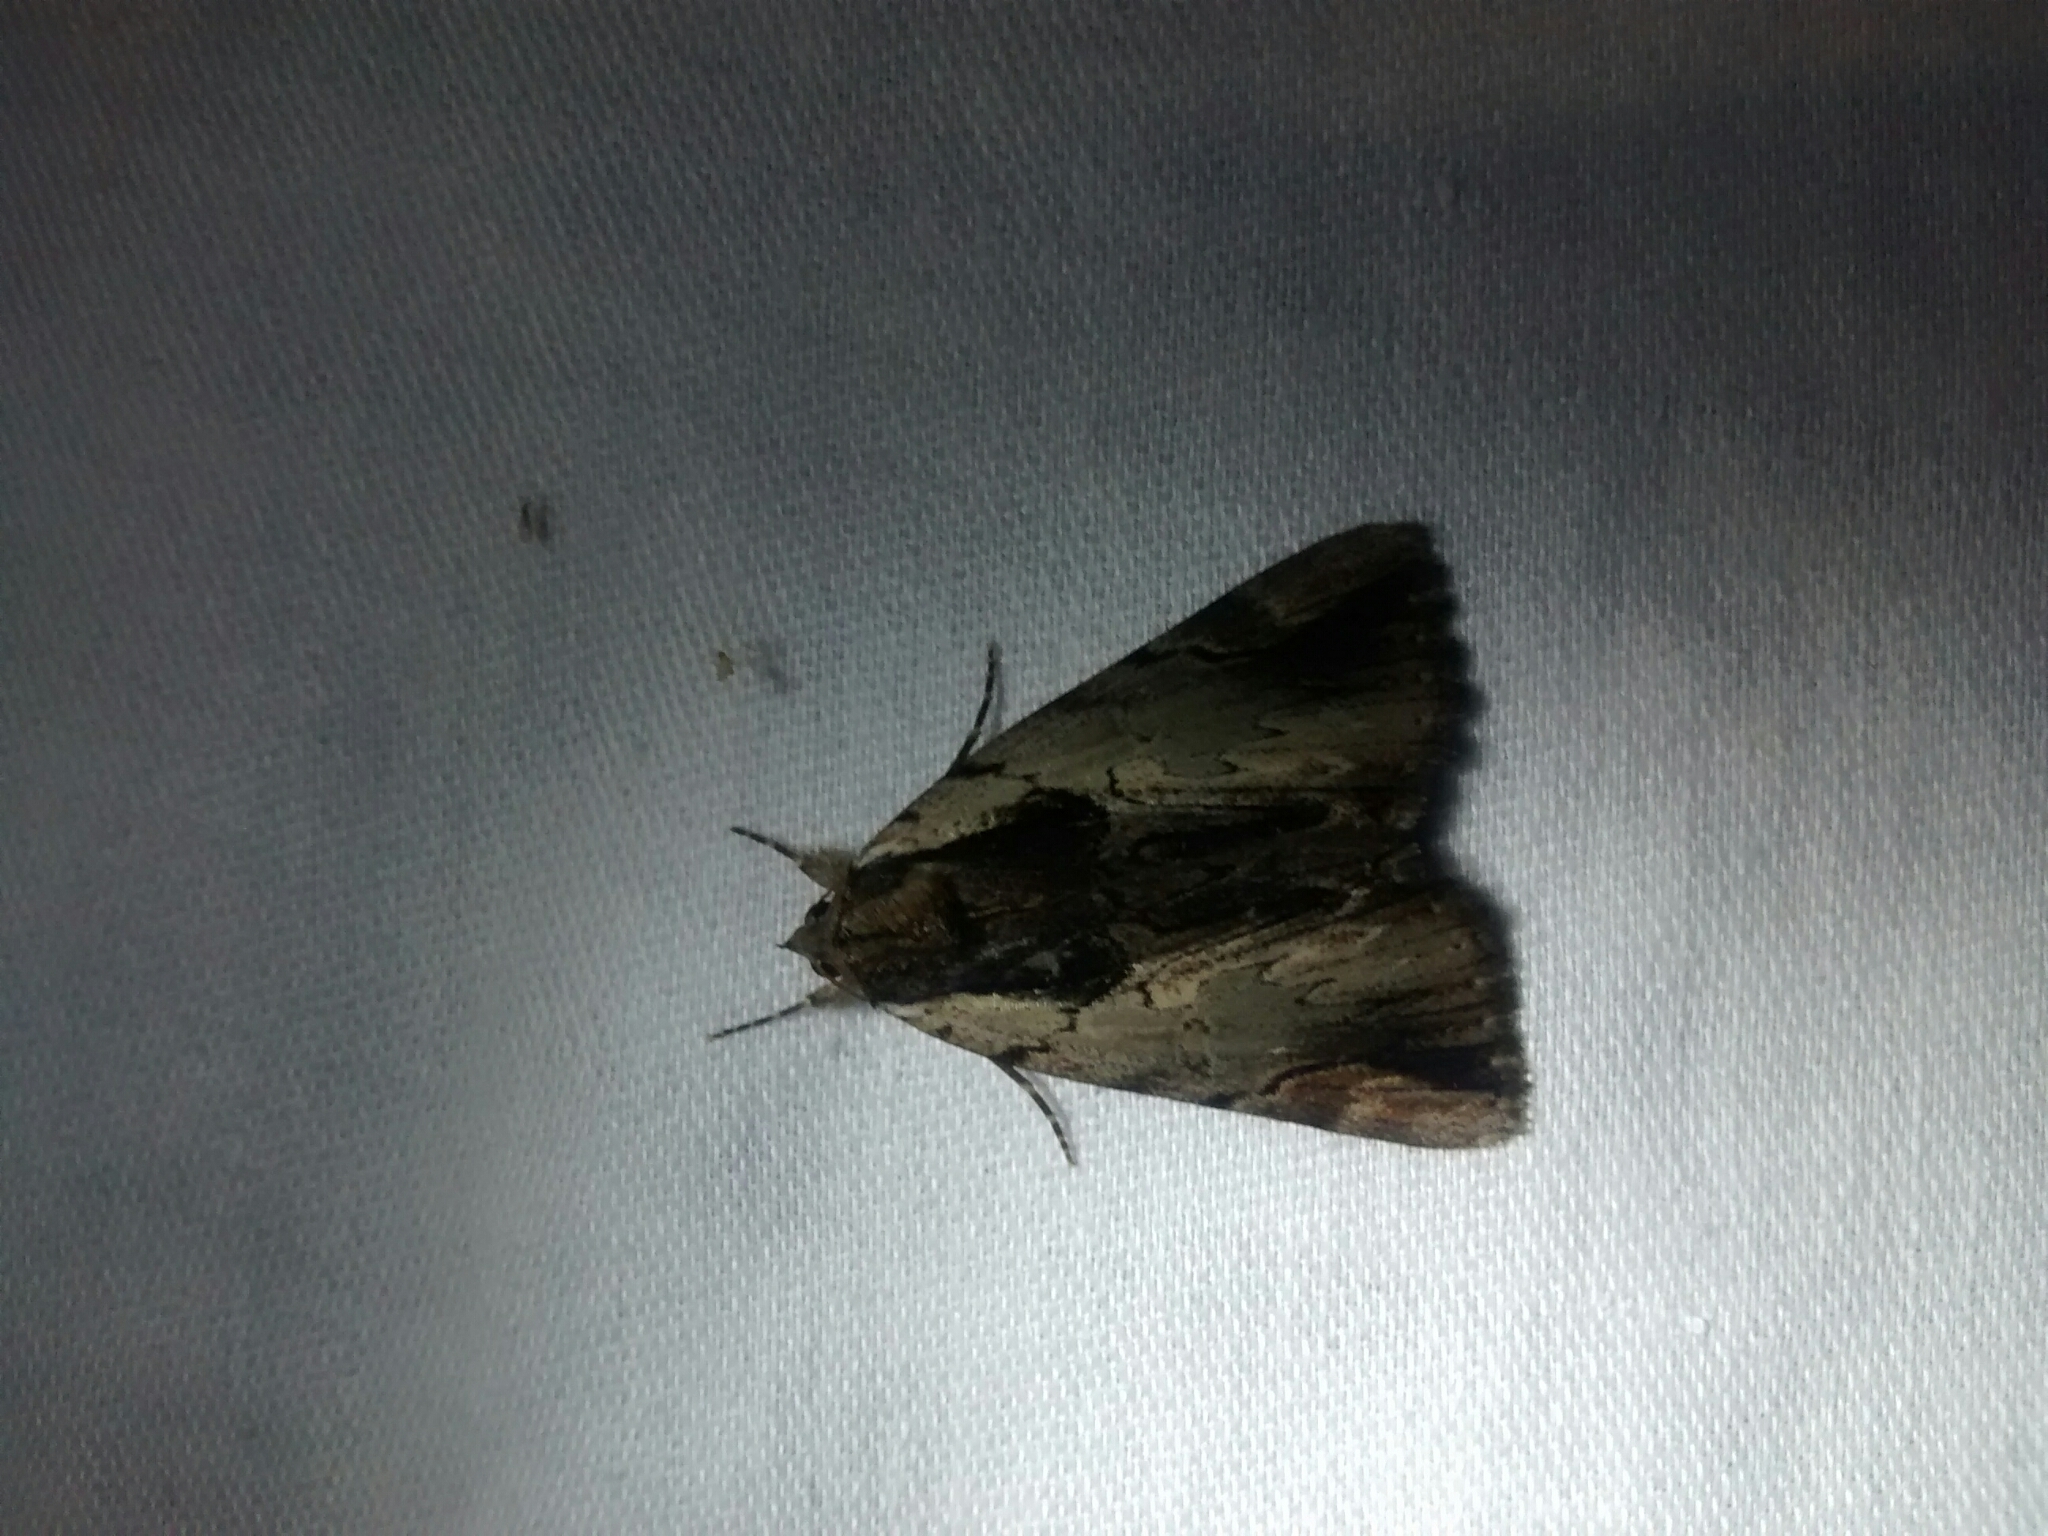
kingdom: Animalia
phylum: Arthropoda
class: Insecta
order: Lepidoptera
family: Erebidae
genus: Catocala
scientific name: Catocala ultronia
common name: Ultronia underwing
